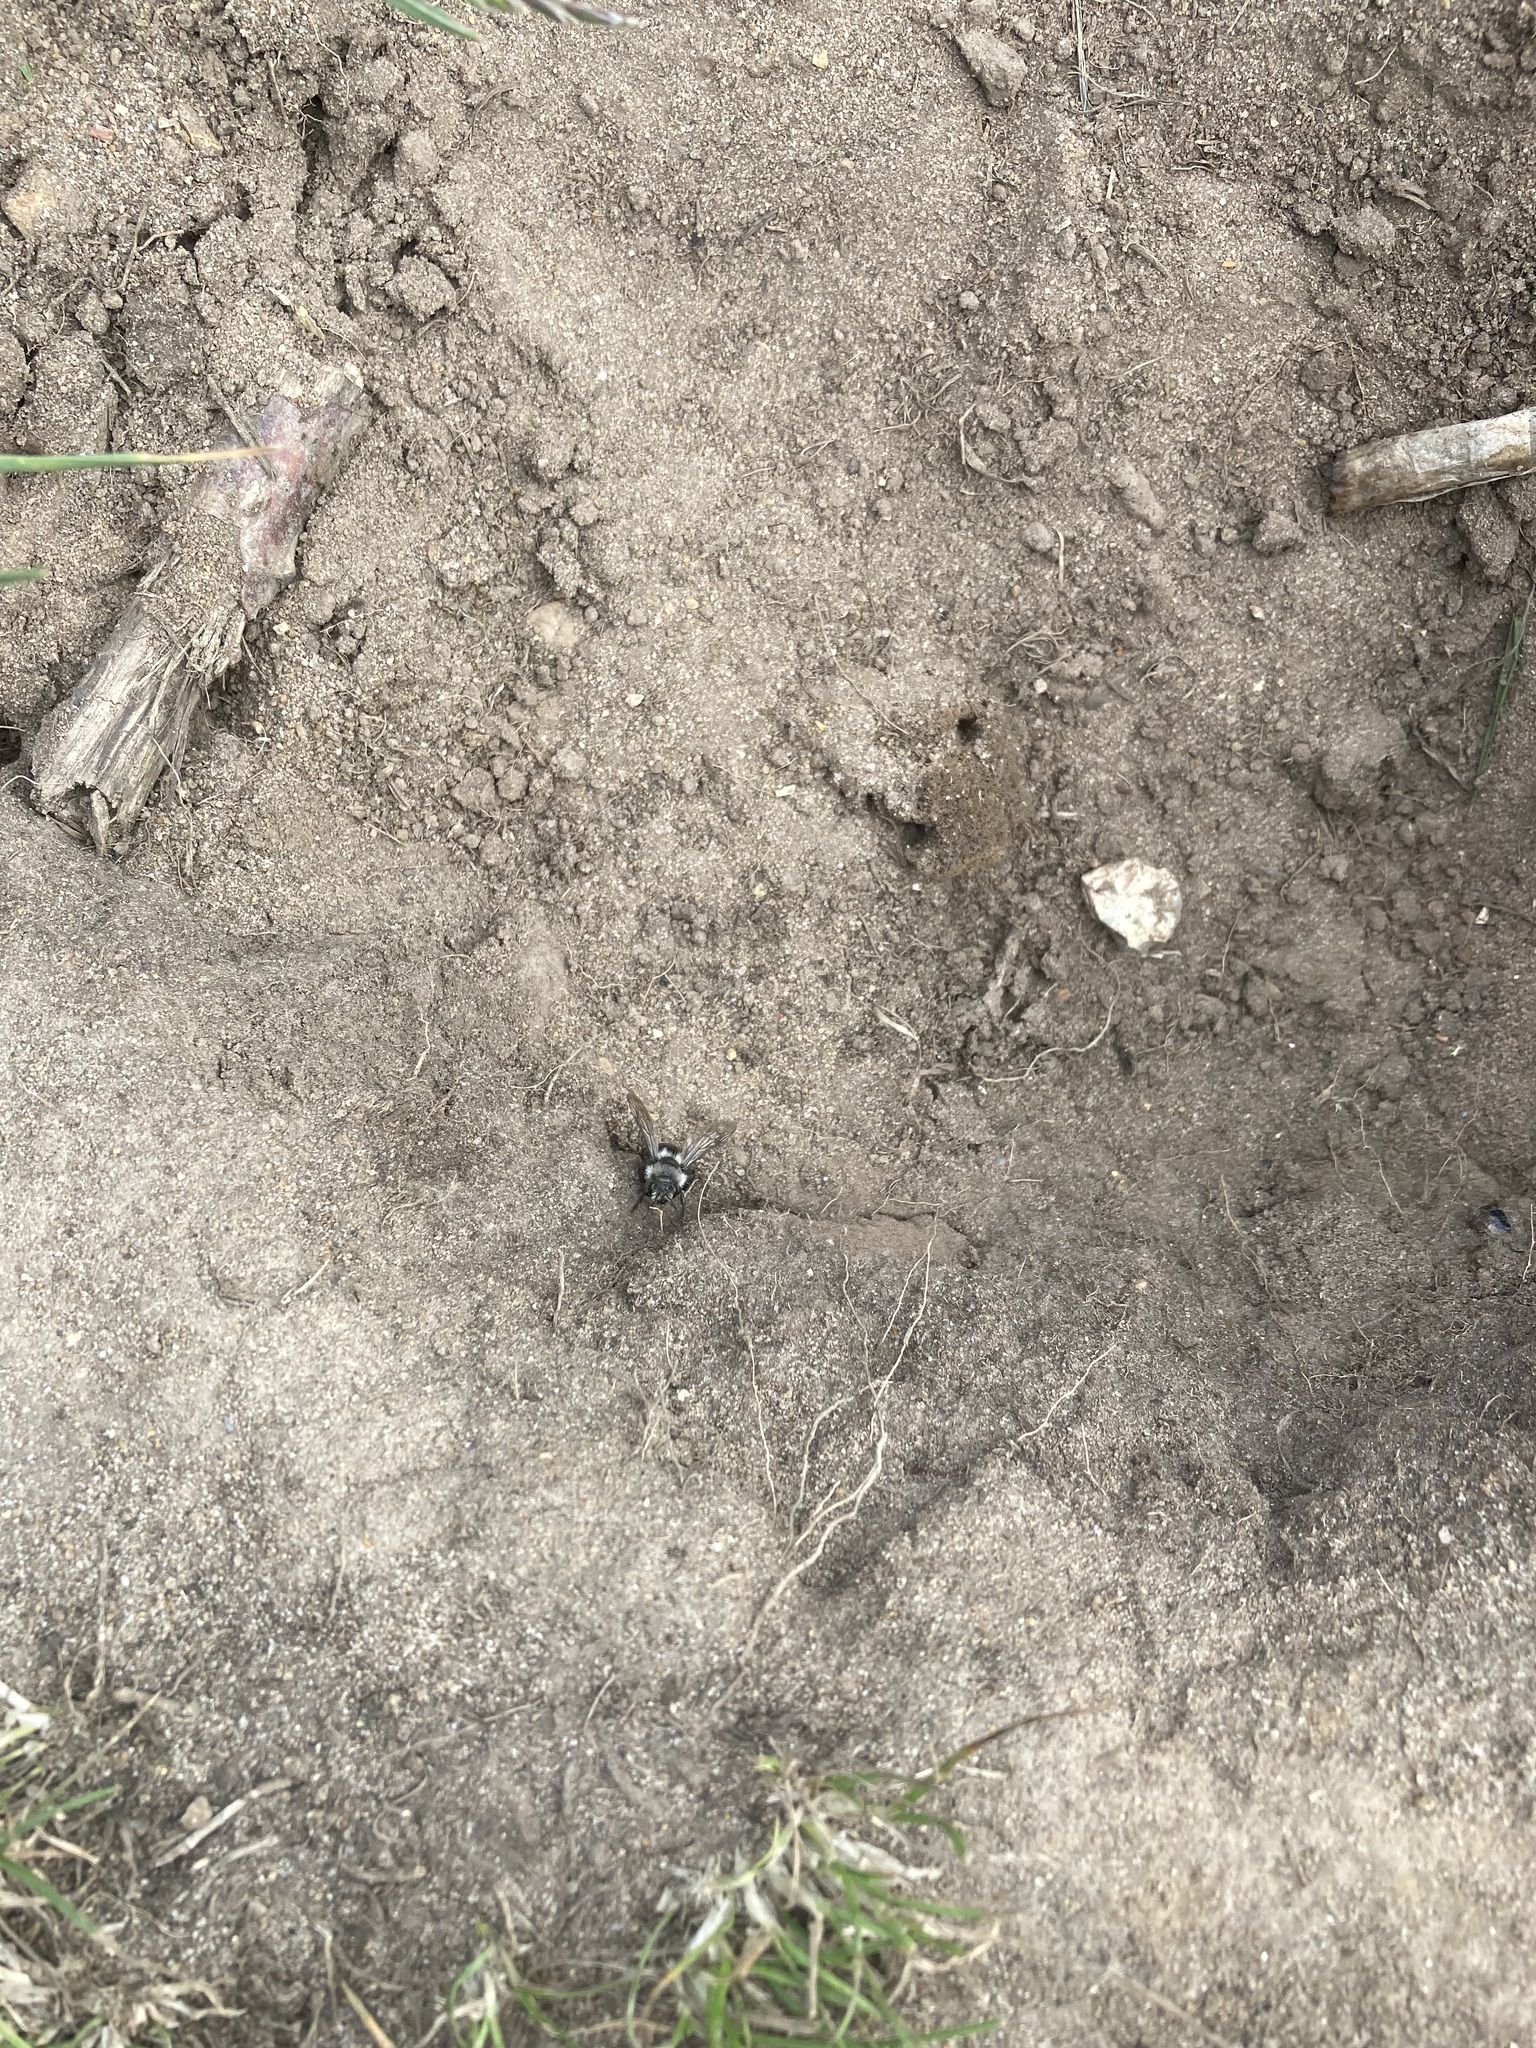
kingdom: Animalia
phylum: Arthropoda
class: Insecta
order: Hymenoptera
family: Apidae
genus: Melecta
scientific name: Melecta albifrons
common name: Common mourning bee
